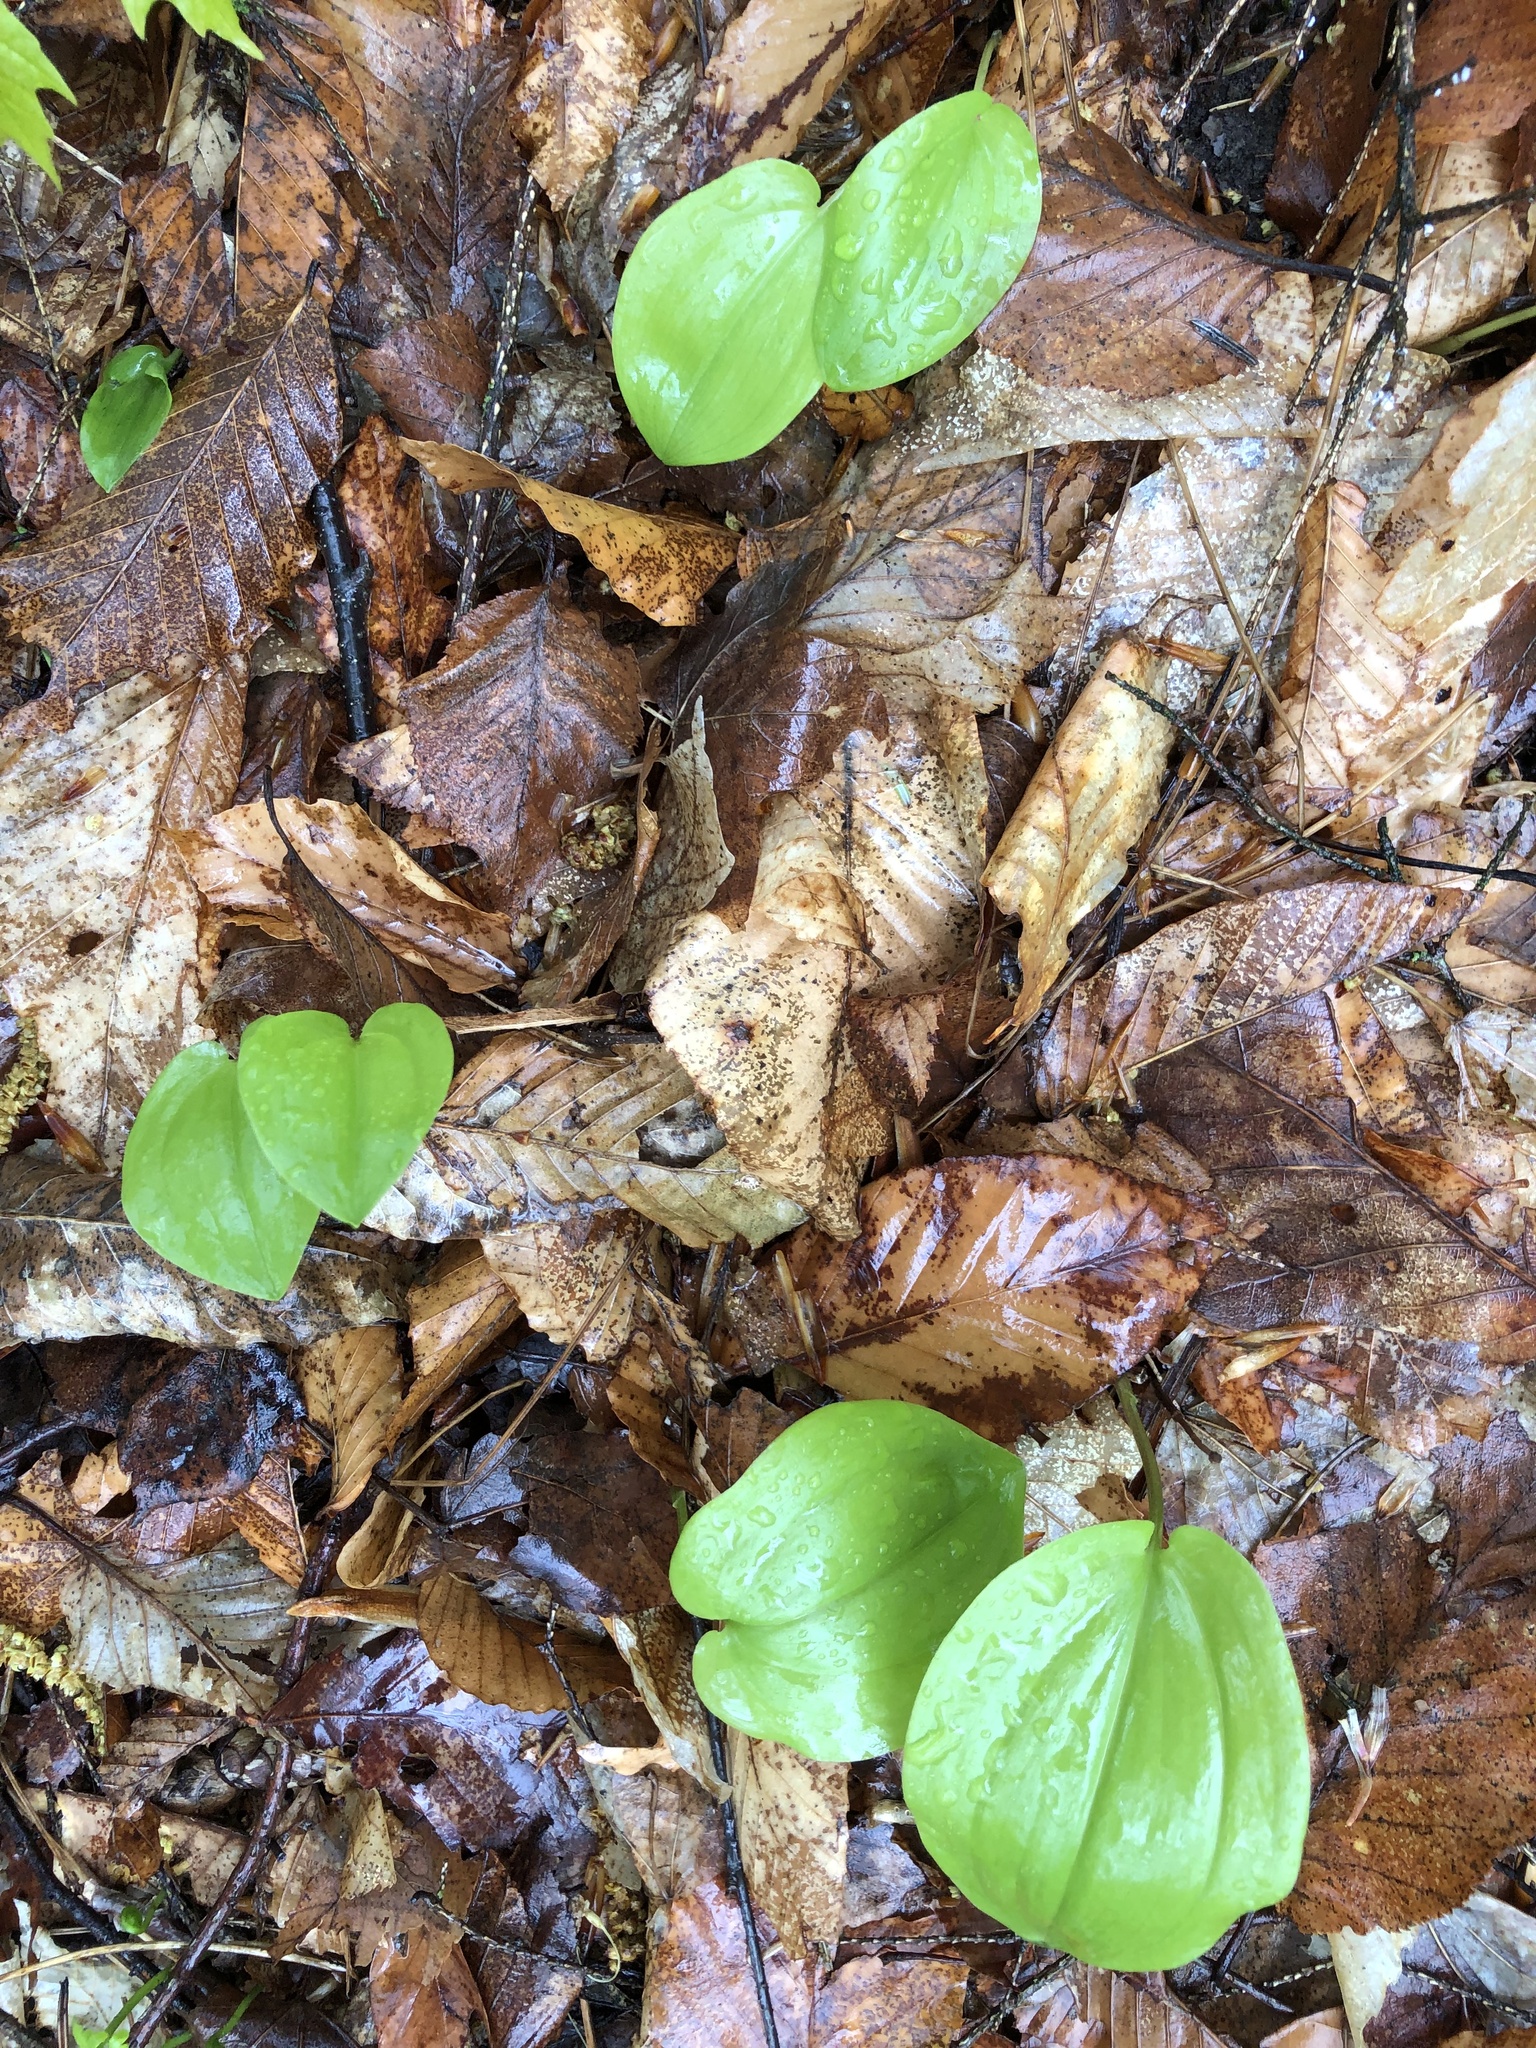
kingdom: Plantae
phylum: Tracheophyta
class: Liliopsida
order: Asparagales
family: Asparagaceae
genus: Maianthemum
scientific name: Maianthemum canadense
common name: False lily-of-the-valley
